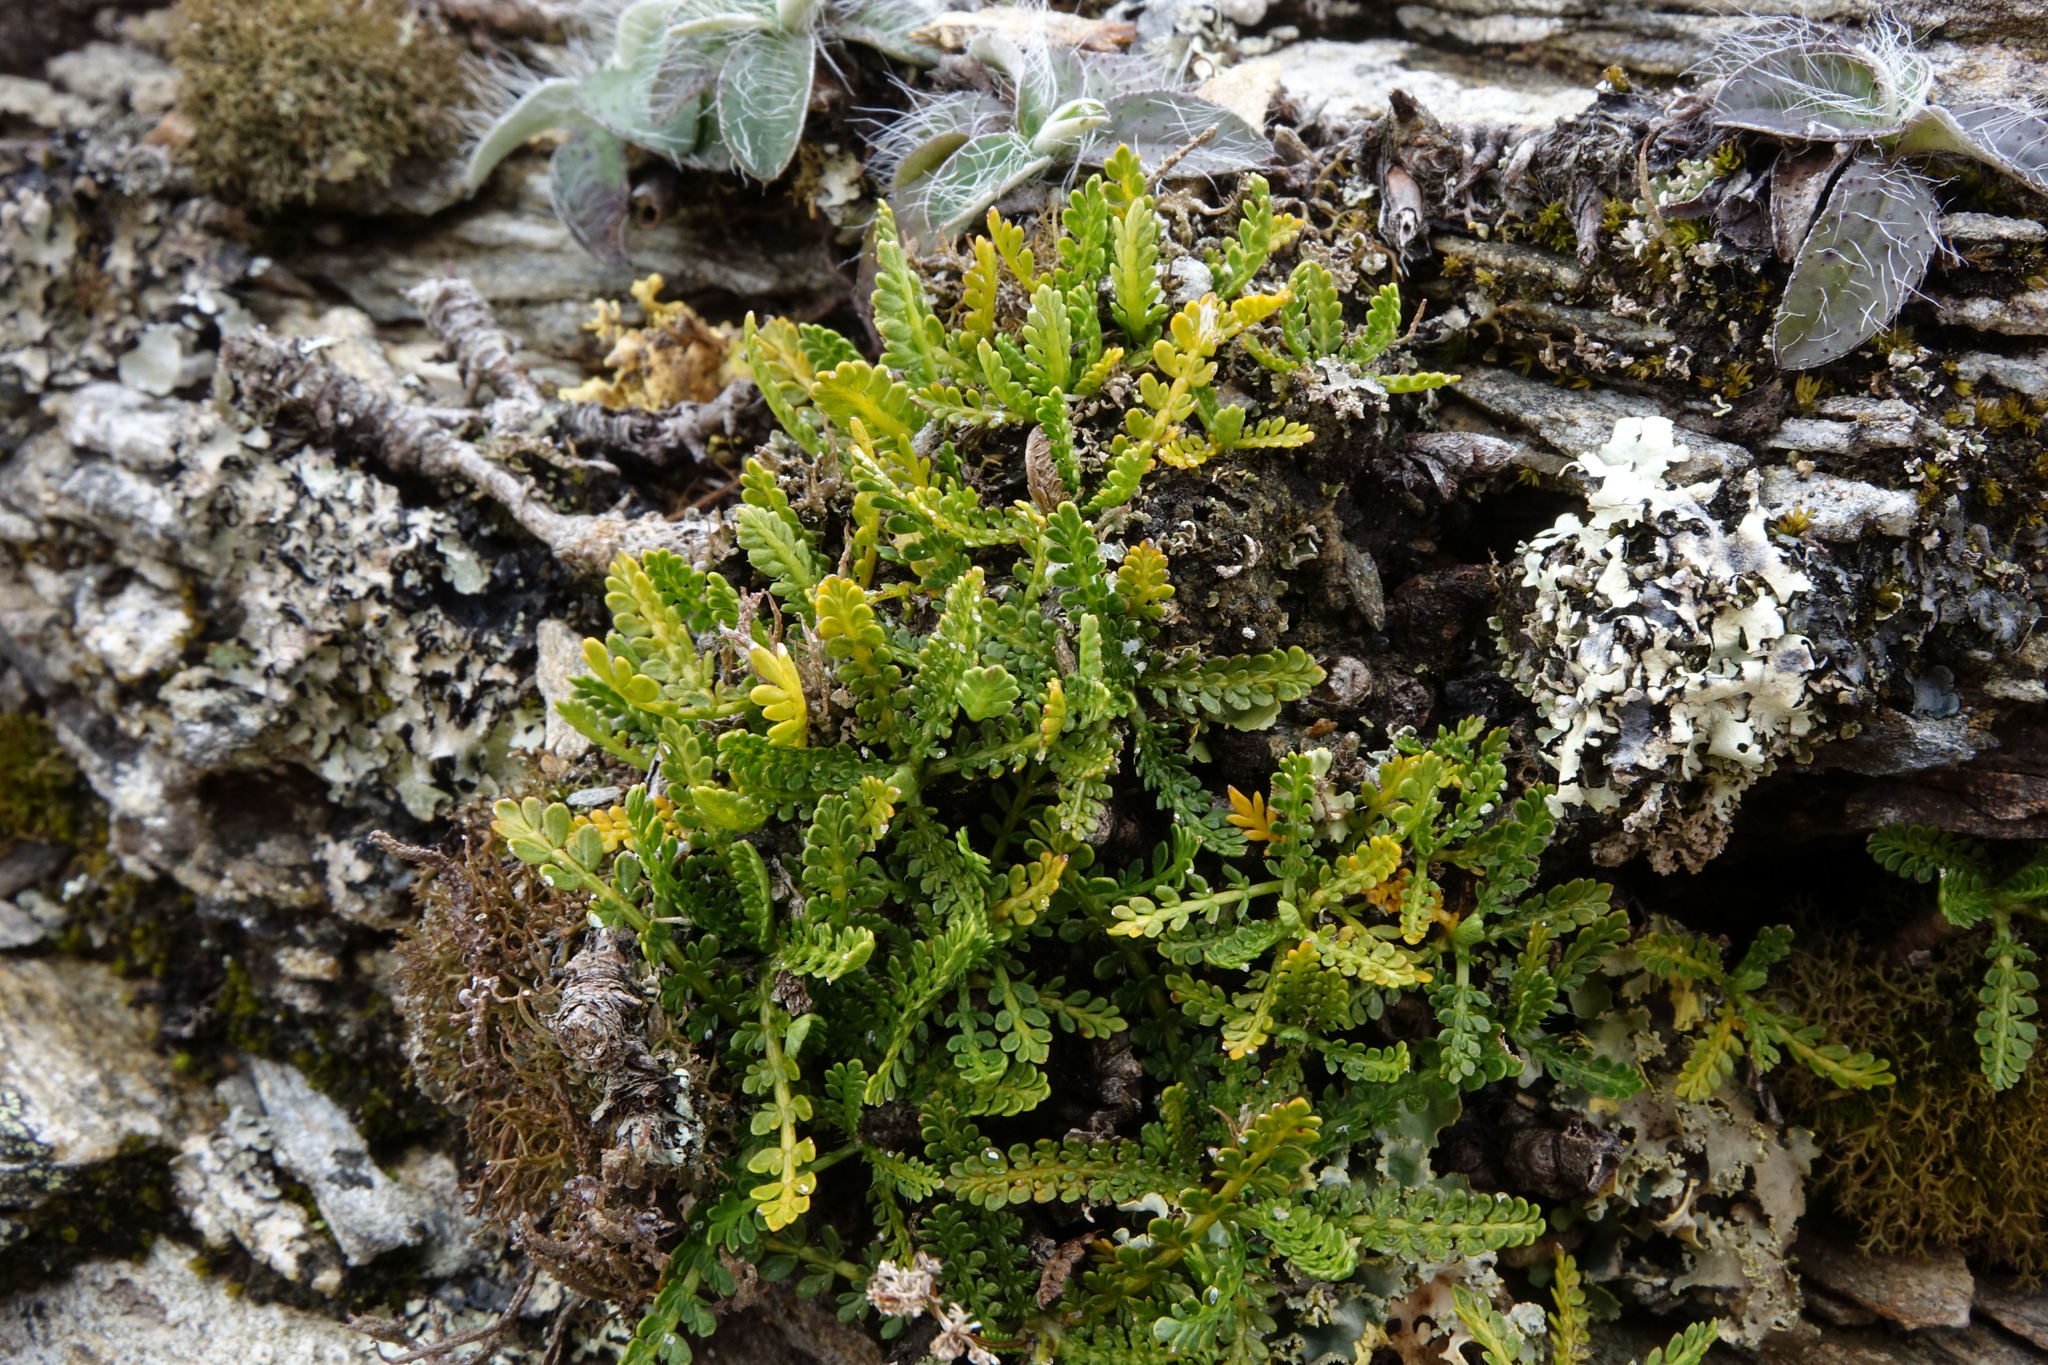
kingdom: Plantae
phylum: Tracheophyta
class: Magnoliopsida
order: Apiales
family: Apiaceae
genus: Anisotome
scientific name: Anisotome aromatica
